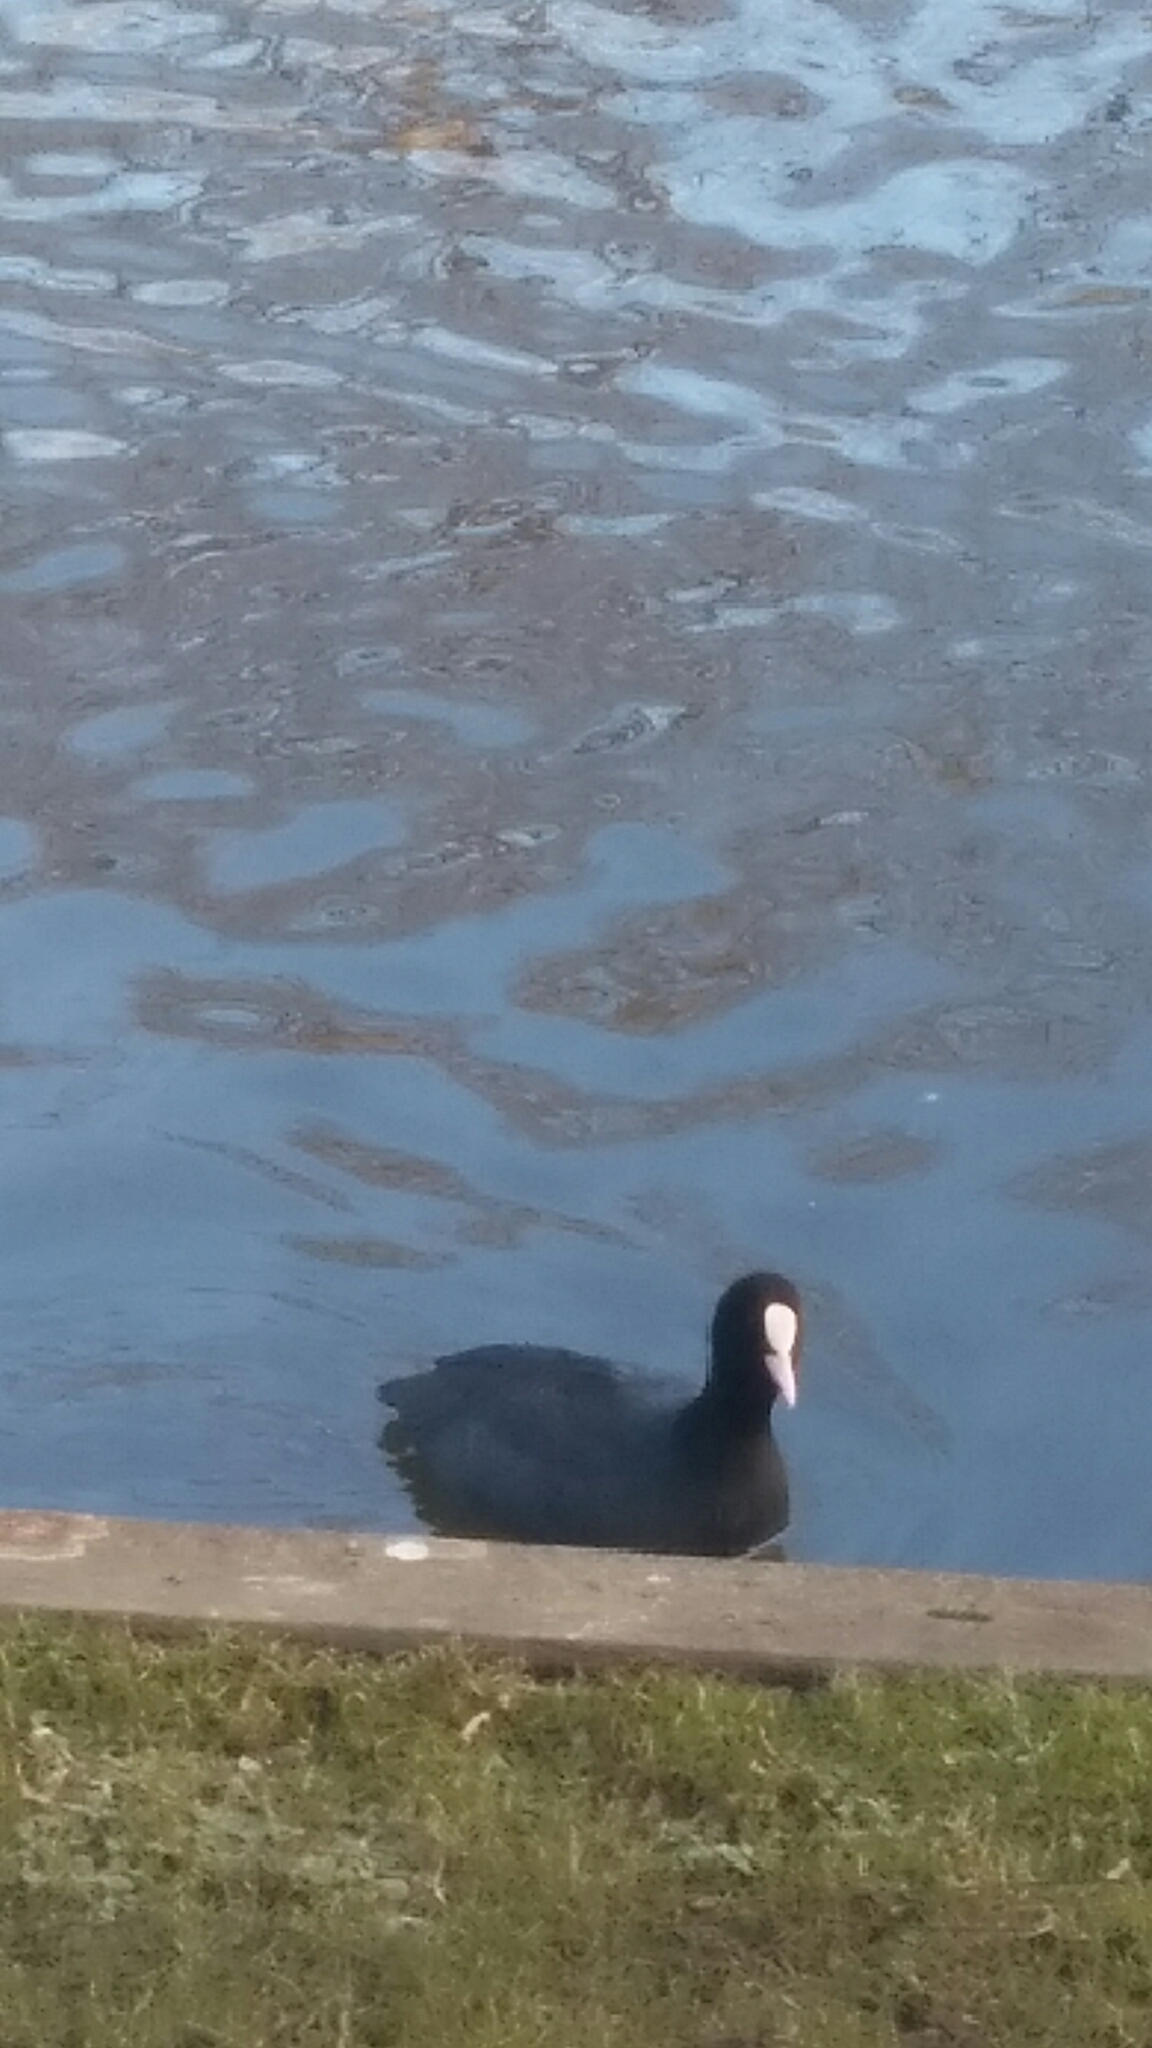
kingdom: Animalia
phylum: Chordata
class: Aves
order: Gruiformes
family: Rallidae
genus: Fulica
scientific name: Fulica atra
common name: Eurasian coot
